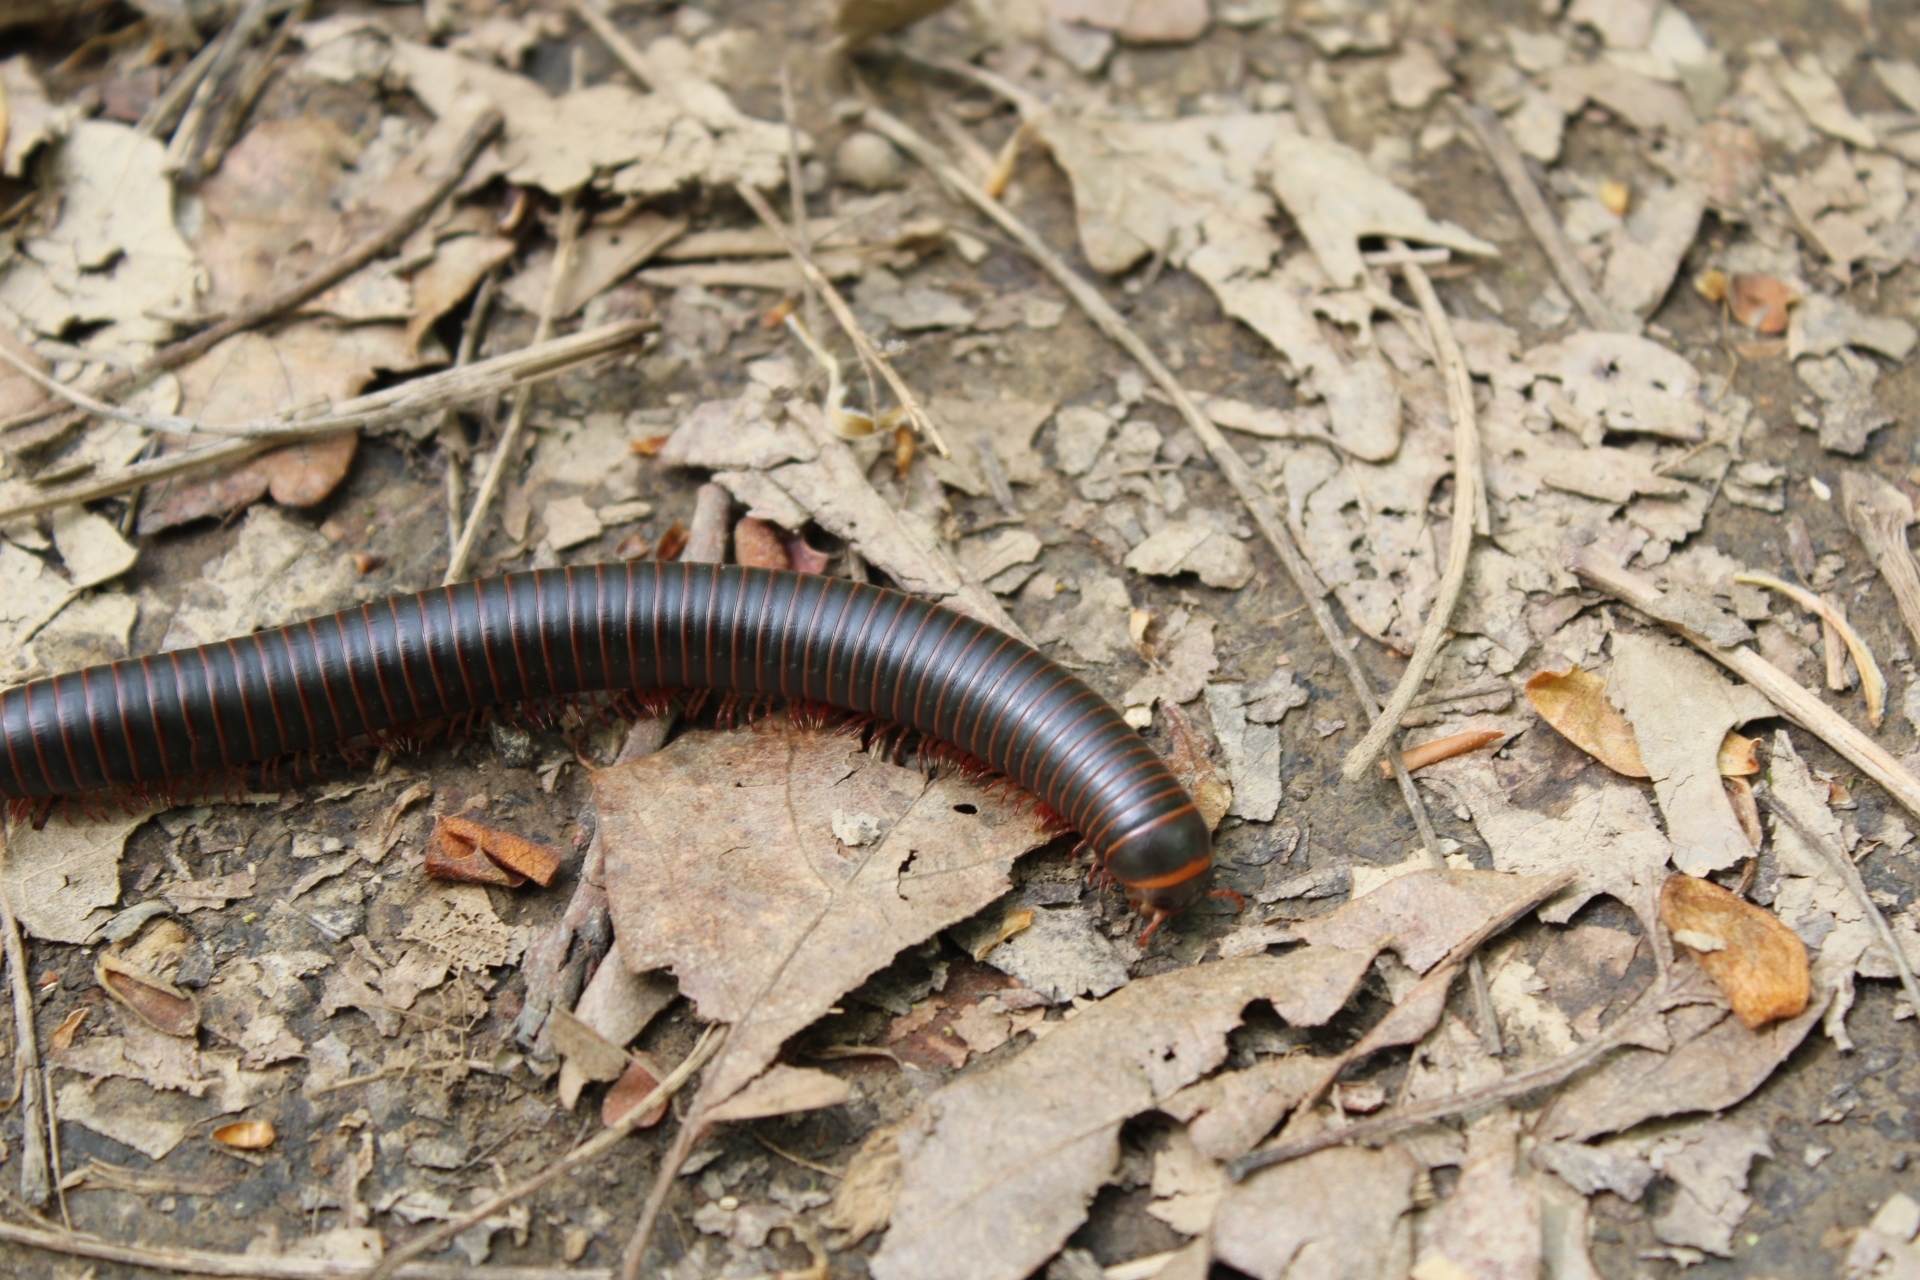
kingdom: Animalia
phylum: Arthropoda
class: Diplopoda
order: Spirobolida
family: Spirobolidae
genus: Narceus
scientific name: Narceus
